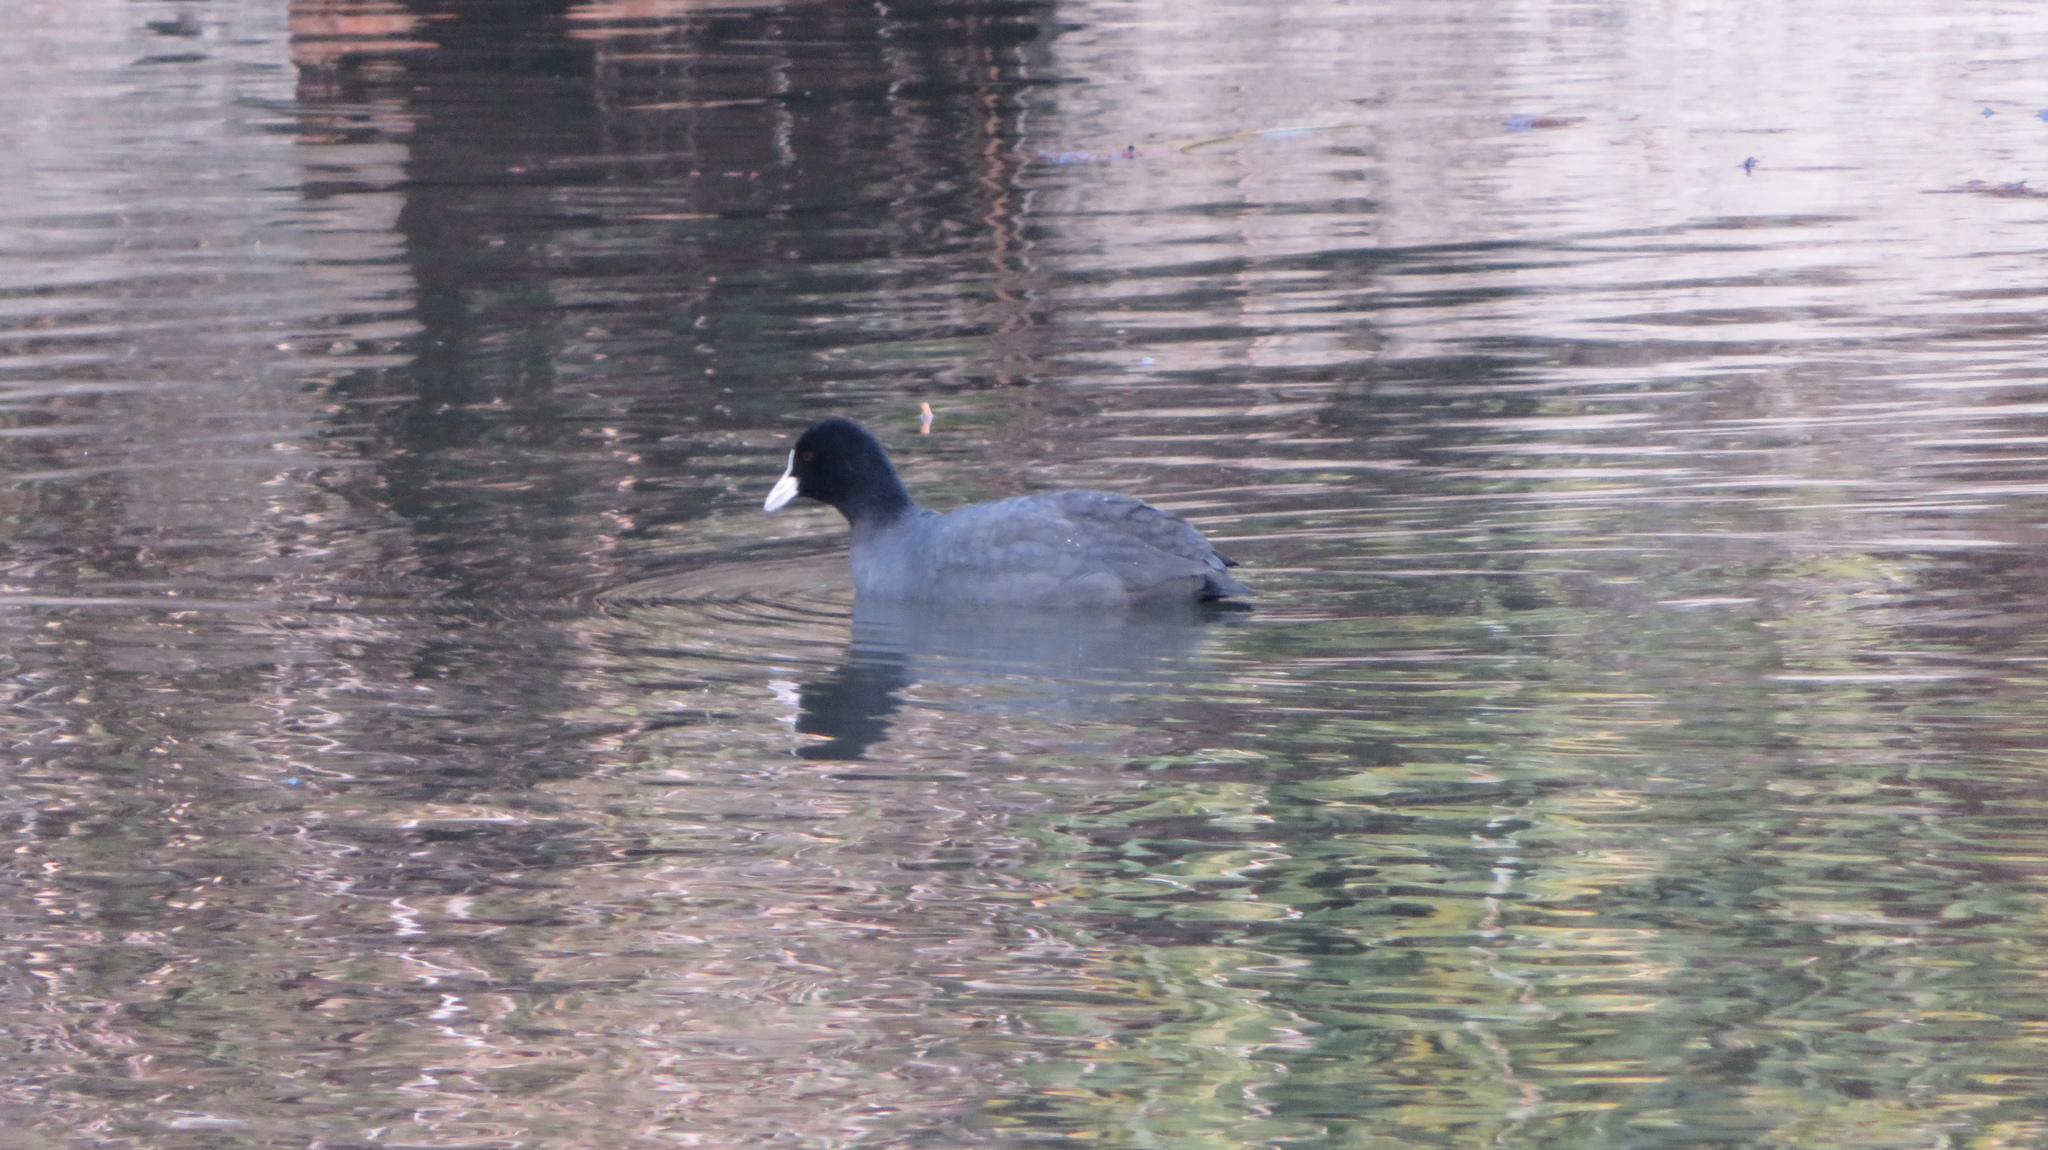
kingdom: Animalia
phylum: Chordata
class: Aves
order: Gruiformes
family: Rallidae
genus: Fulica
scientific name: Fulica atra
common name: Eurasian coot
